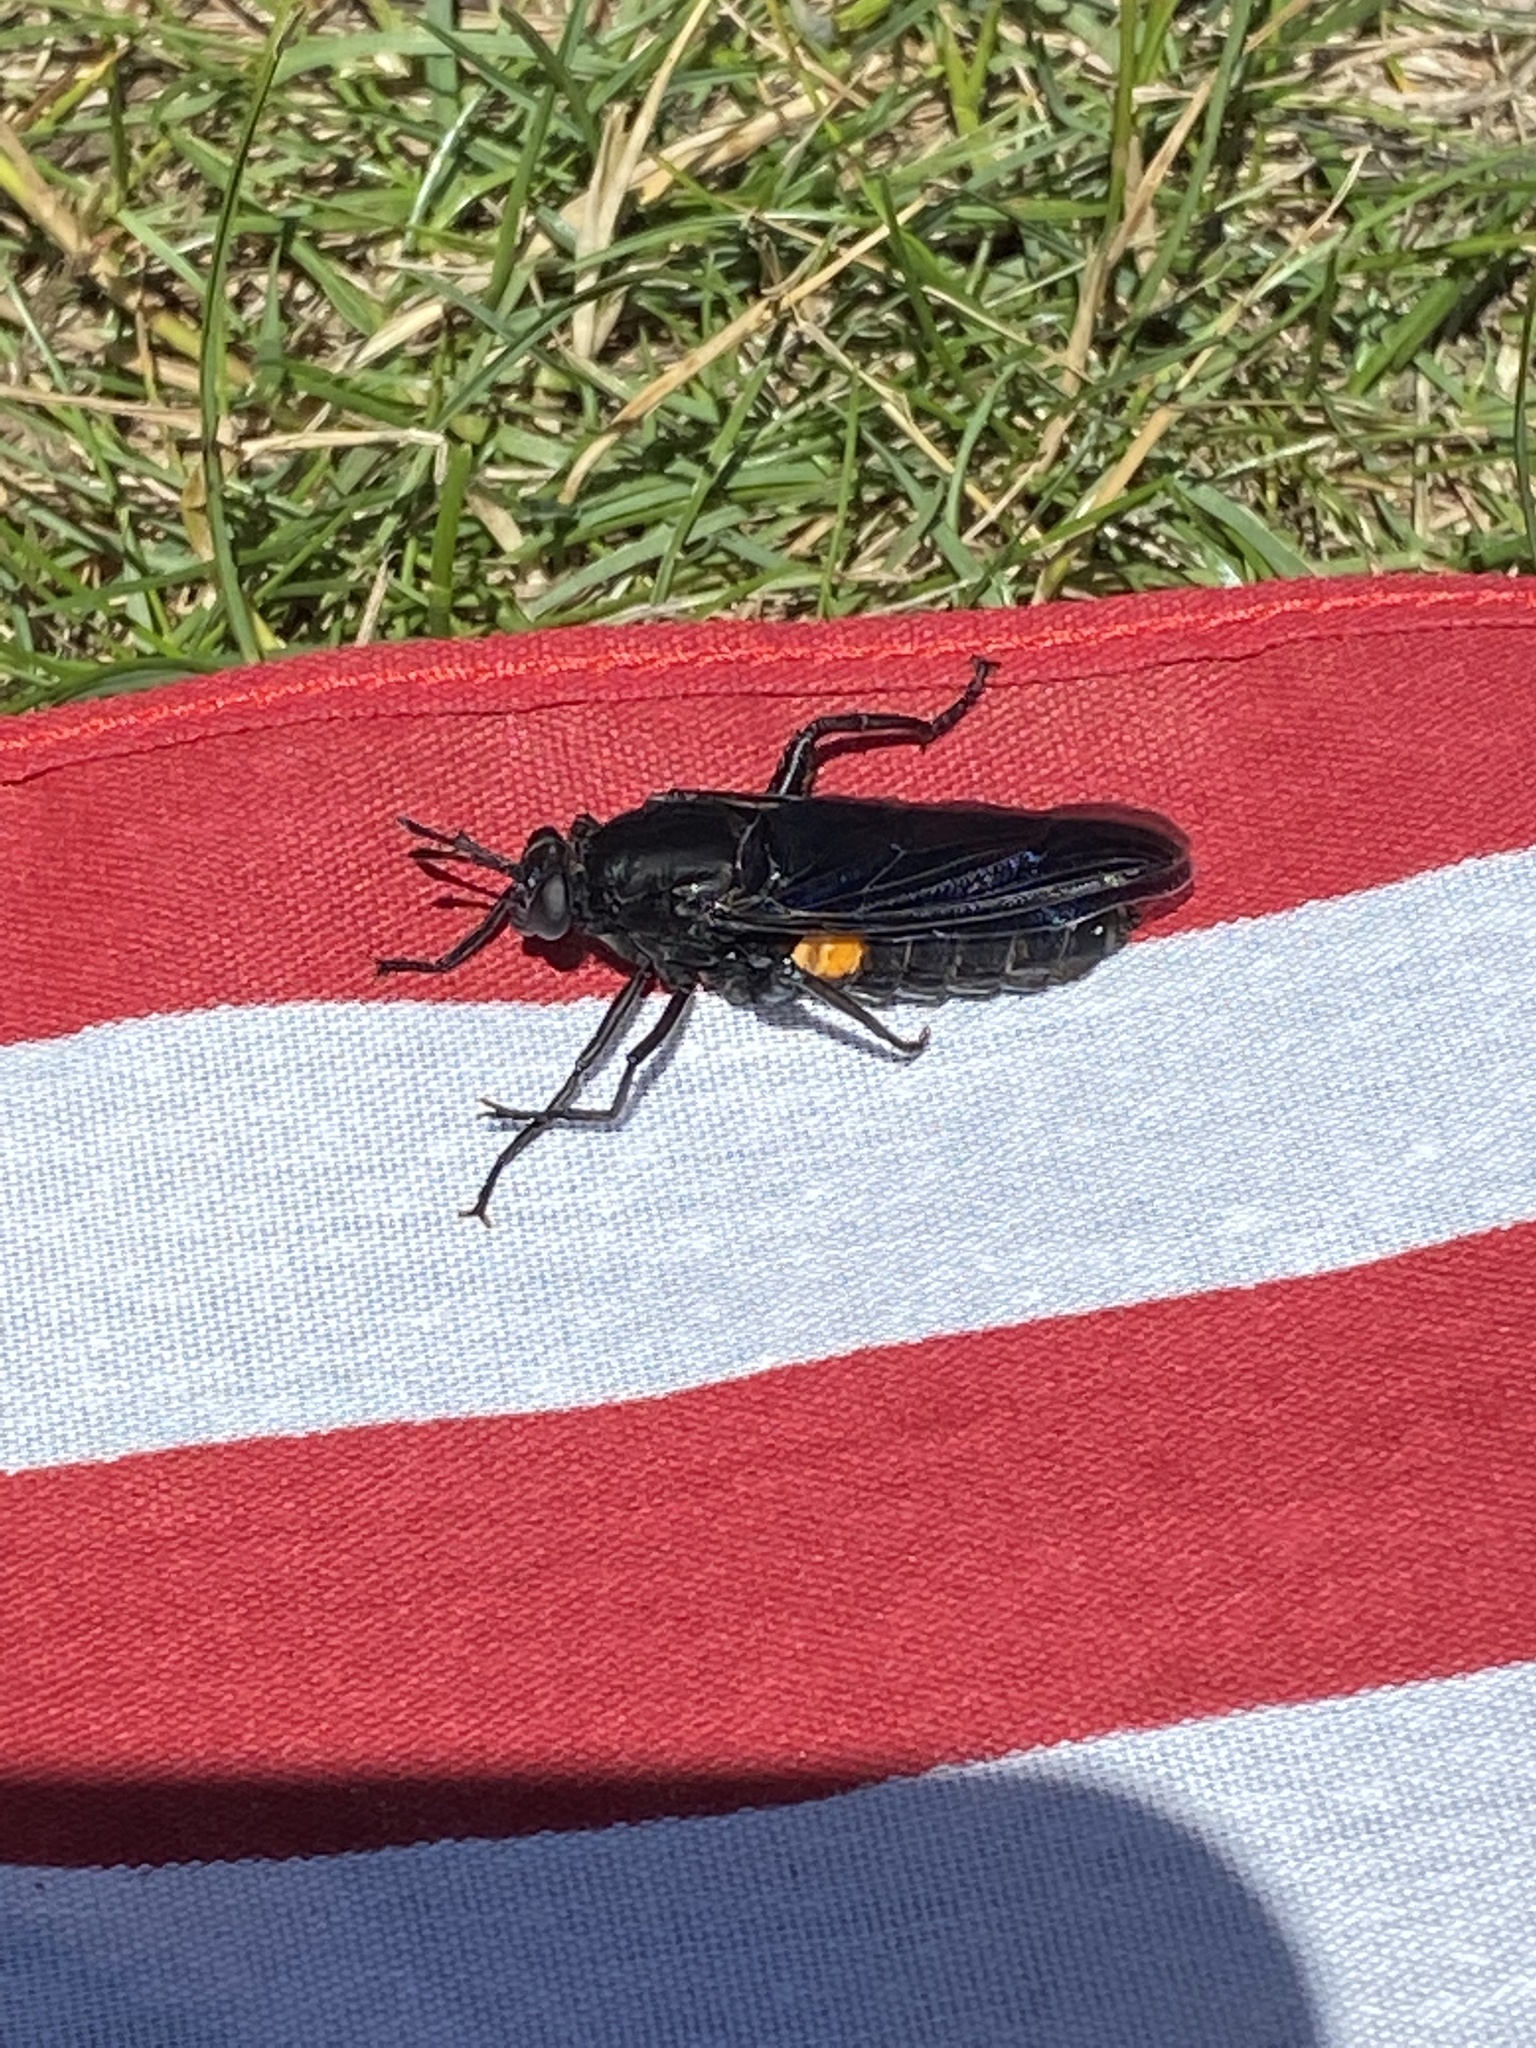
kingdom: Animalia
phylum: Arthropoda
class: Insecta
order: Diptera
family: Mydidae
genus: Mydas
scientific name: Mydas clavatus
